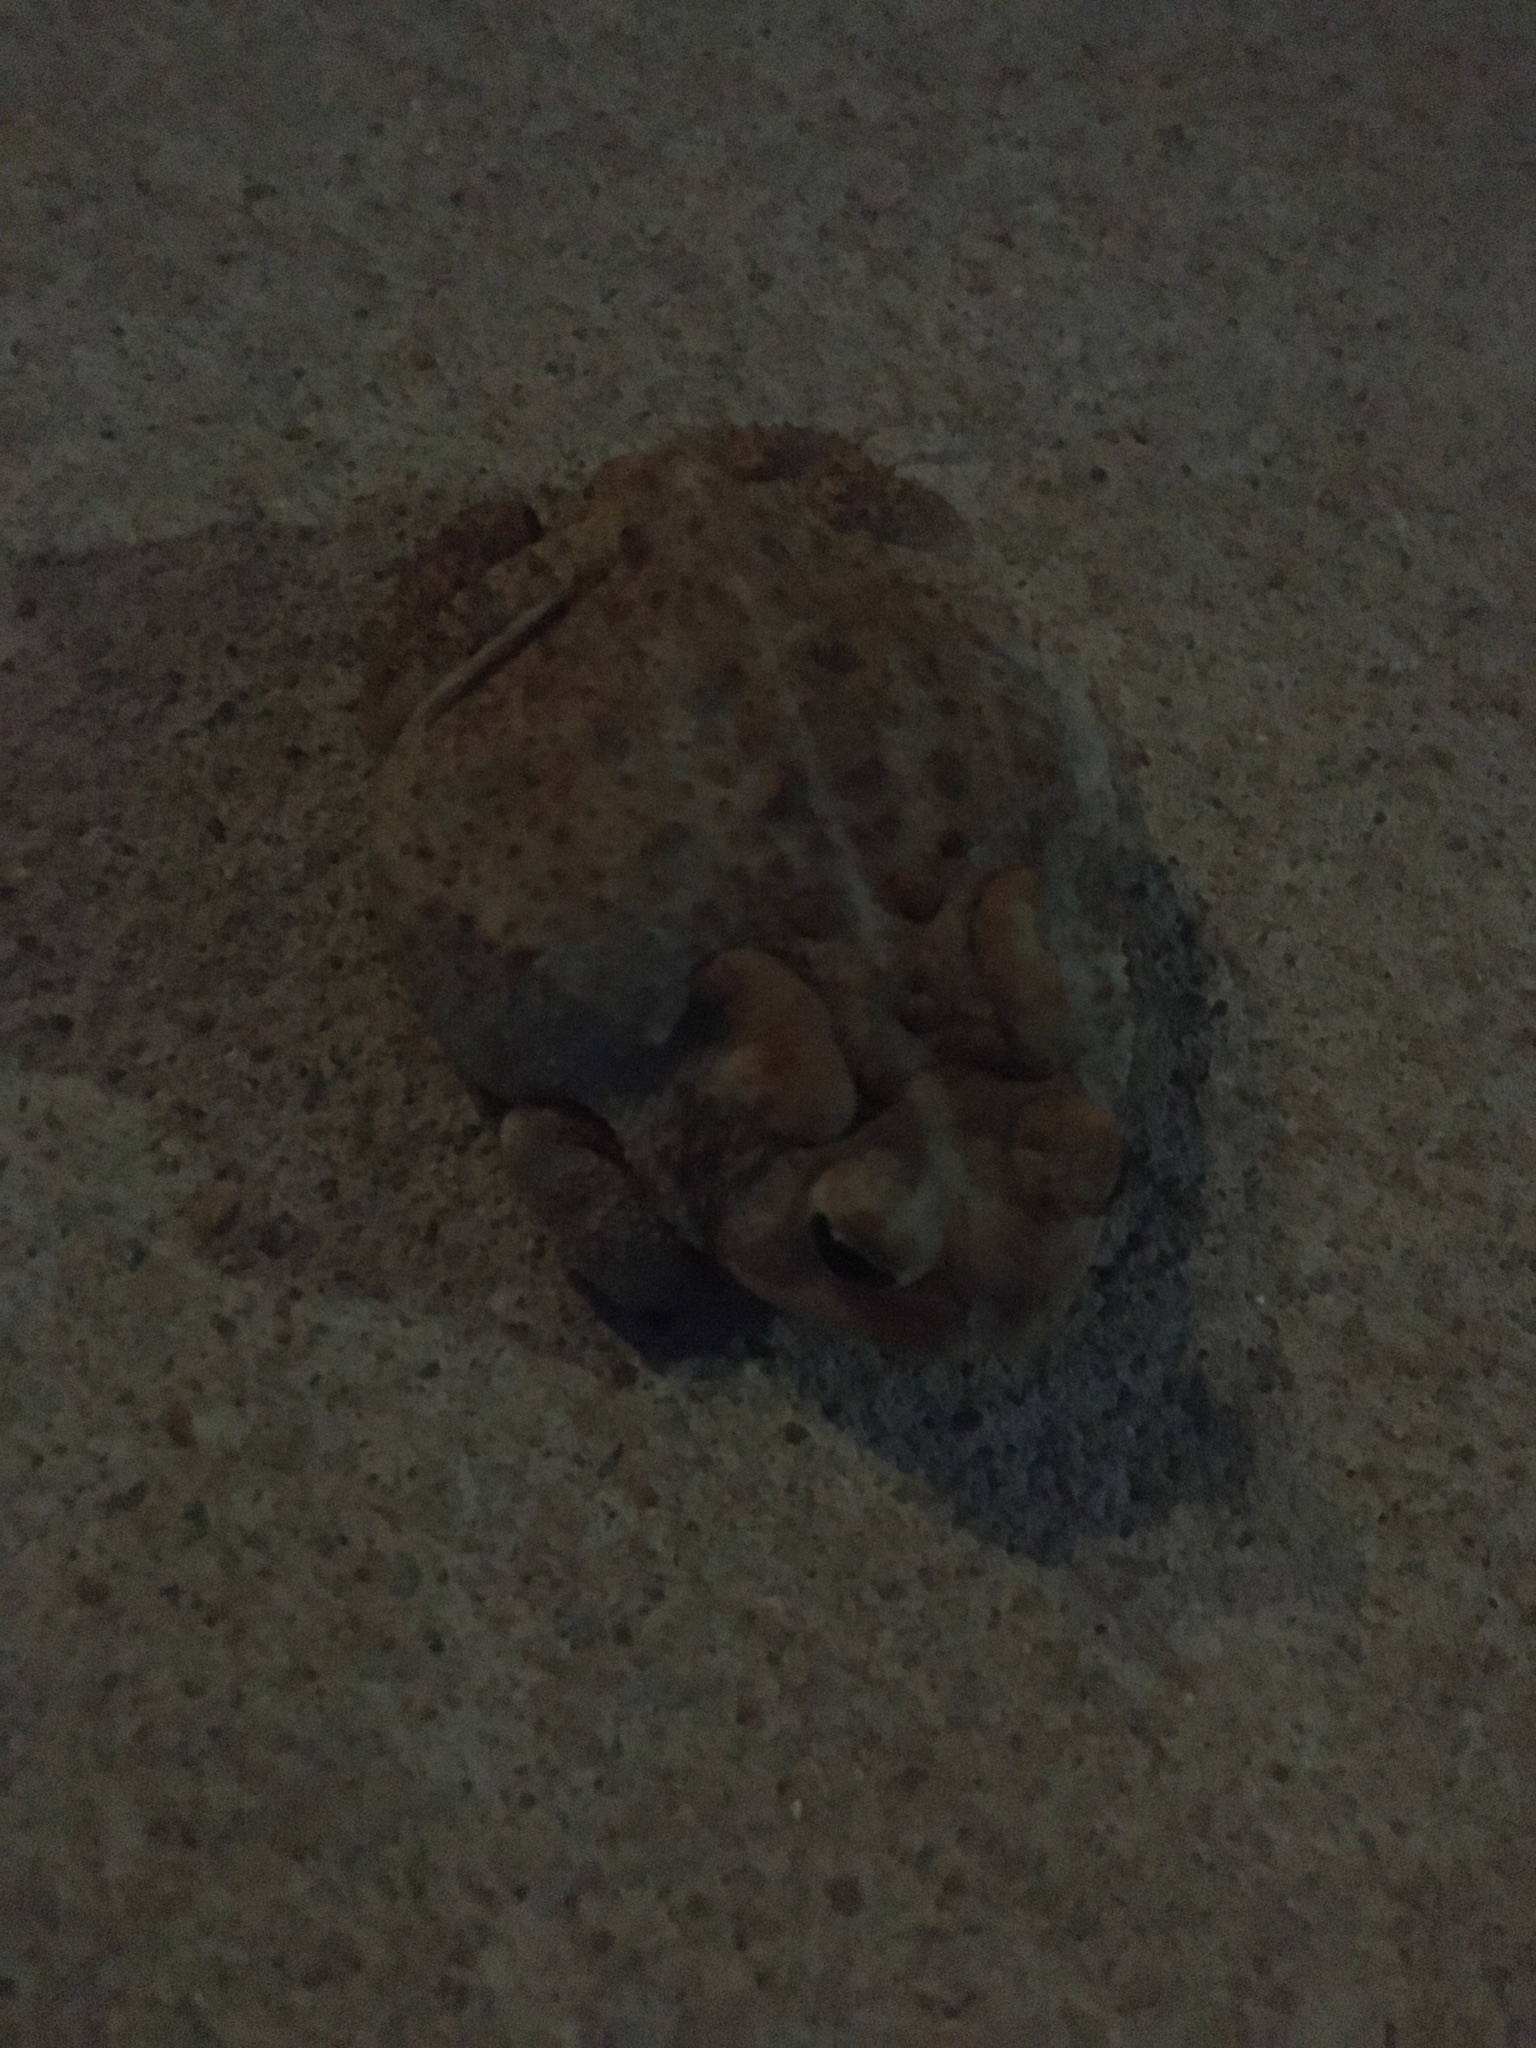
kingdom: Animalia
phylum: Chordata
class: Amphibia
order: Anura
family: Bufonidae
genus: Anaxyrus
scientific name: Anaxyrus americanus
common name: American toad
